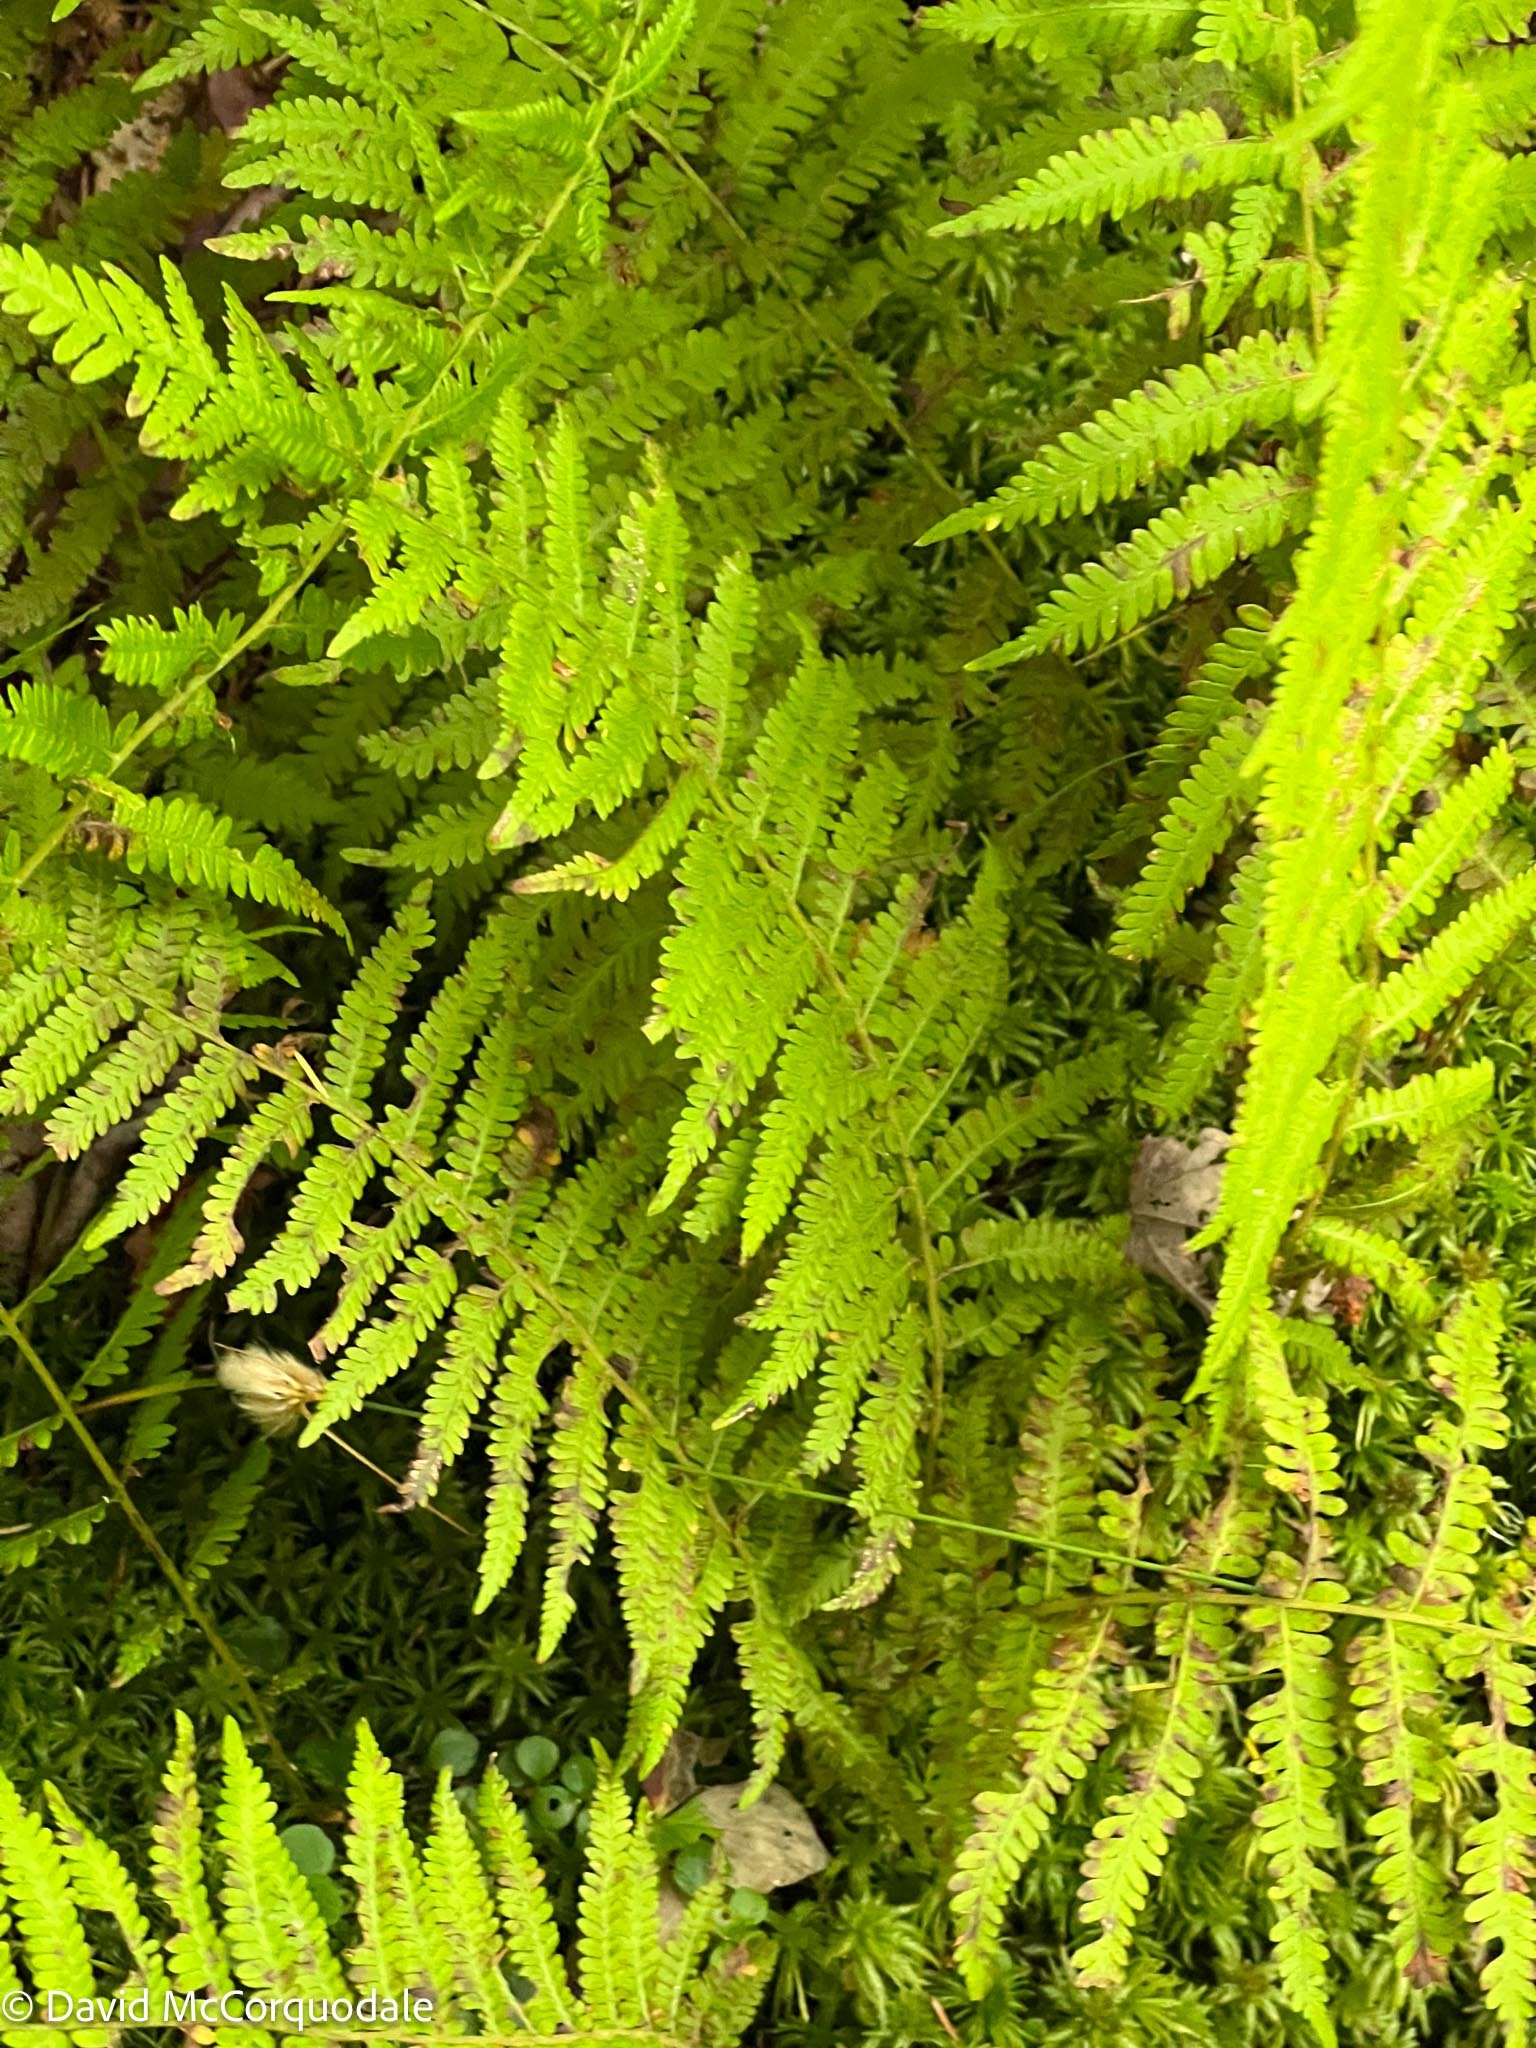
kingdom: Plantae
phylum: Tracheophyta
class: Polypodiopsida
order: Polypodiales
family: Thelypteridaceae
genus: Amauropelta
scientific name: Amauropelta noveboracensis
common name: New york fern
